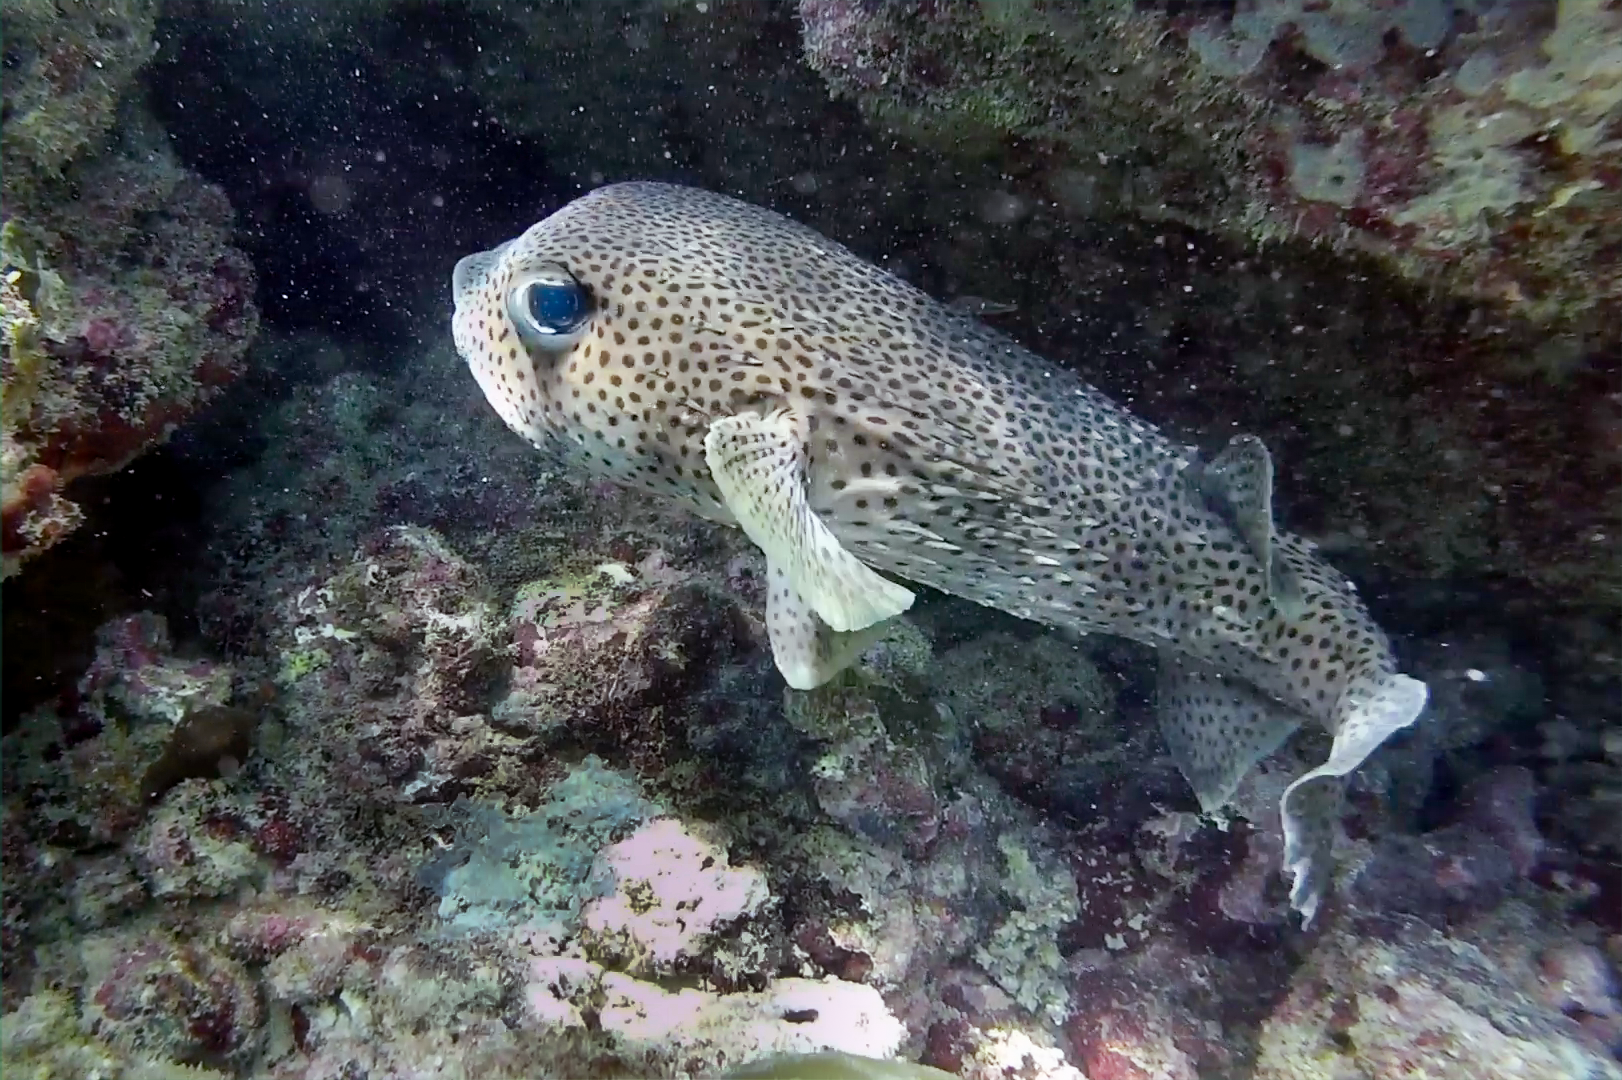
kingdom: Animalia
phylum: Chordata
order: Tetraodontiformes
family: Diodontidae
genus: Diodon
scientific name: Diodon hystrix
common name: Giant porcupinefish
